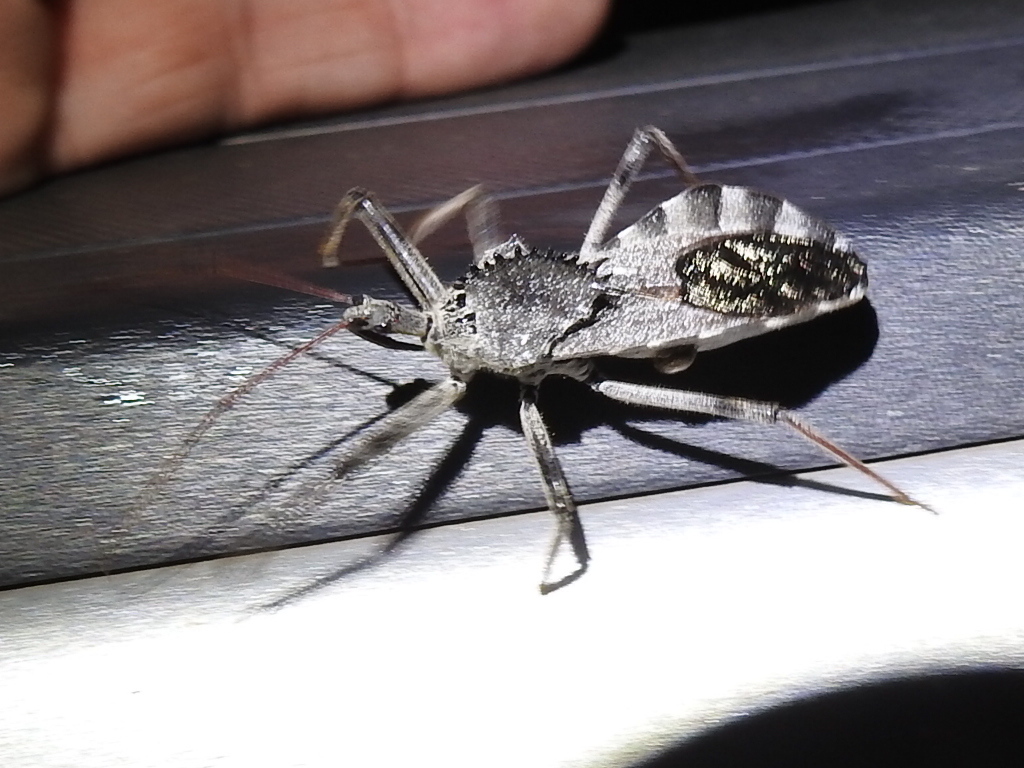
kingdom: Animalia
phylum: Arthropoda
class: Insecta
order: Hemiptera
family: Reduviidae
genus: Arilus
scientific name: Arilus cristatus
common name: North american wheel bug
